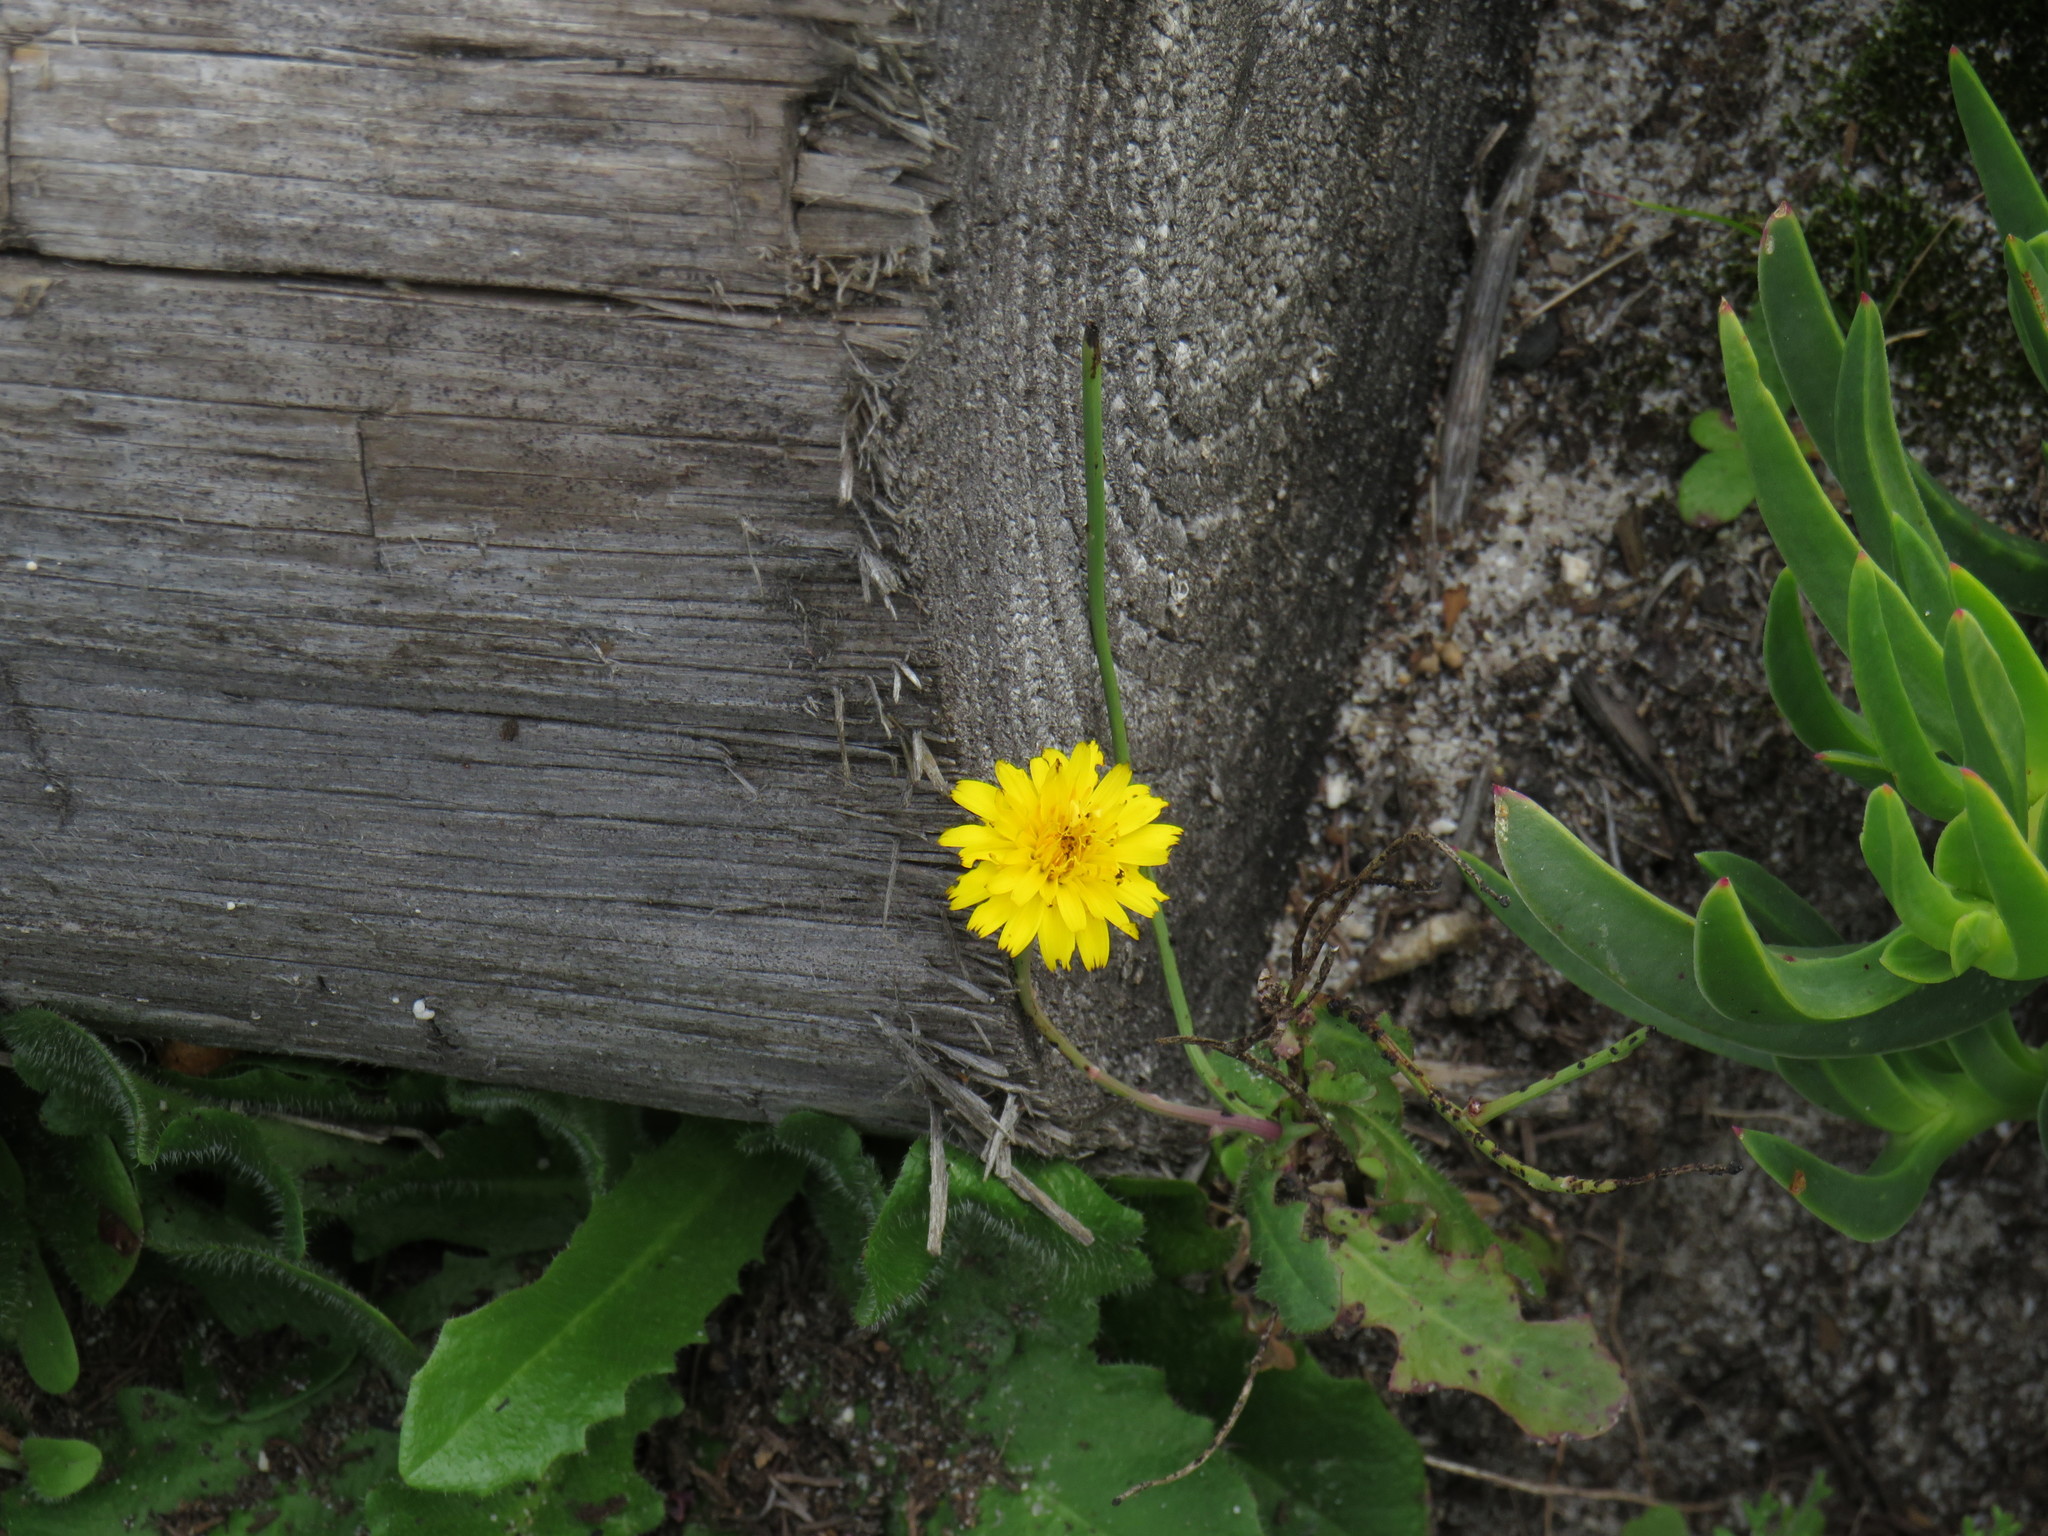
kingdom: Plantae
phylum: Tracheophyta
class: Magnoliopsida
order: Asterales
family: Asteraceae
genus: Hypochaeris
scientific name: Hypochaeris radicata
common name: Flatweed
